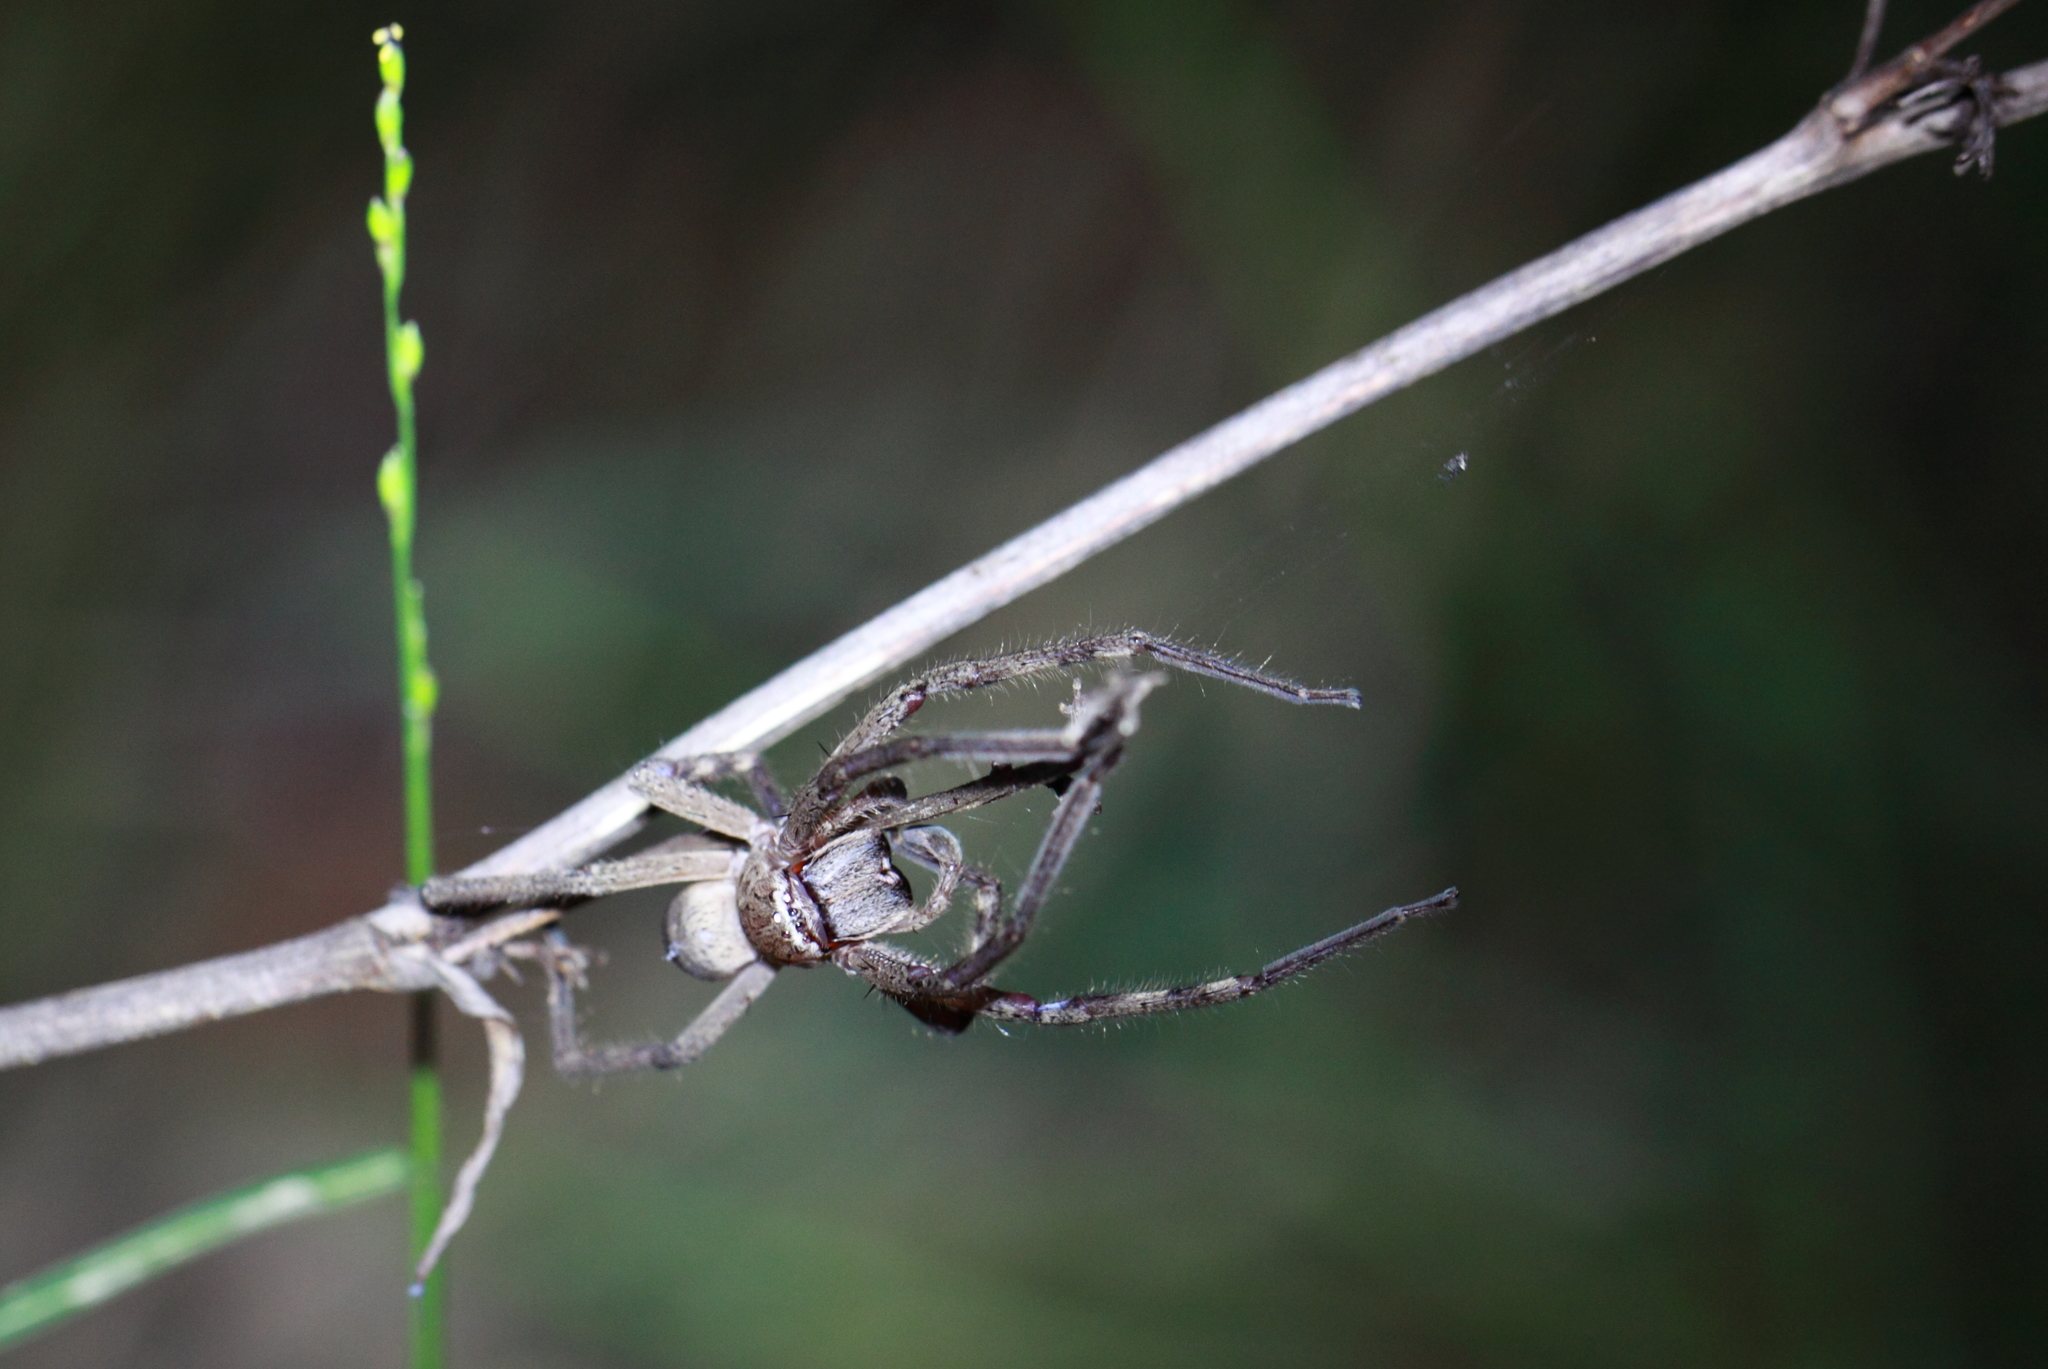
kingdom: Animalia
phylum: Arthropoda
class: Arachnida
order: Araneae
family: Sparassidae
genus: Neosparassus
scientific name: Neosparassus calligaster
